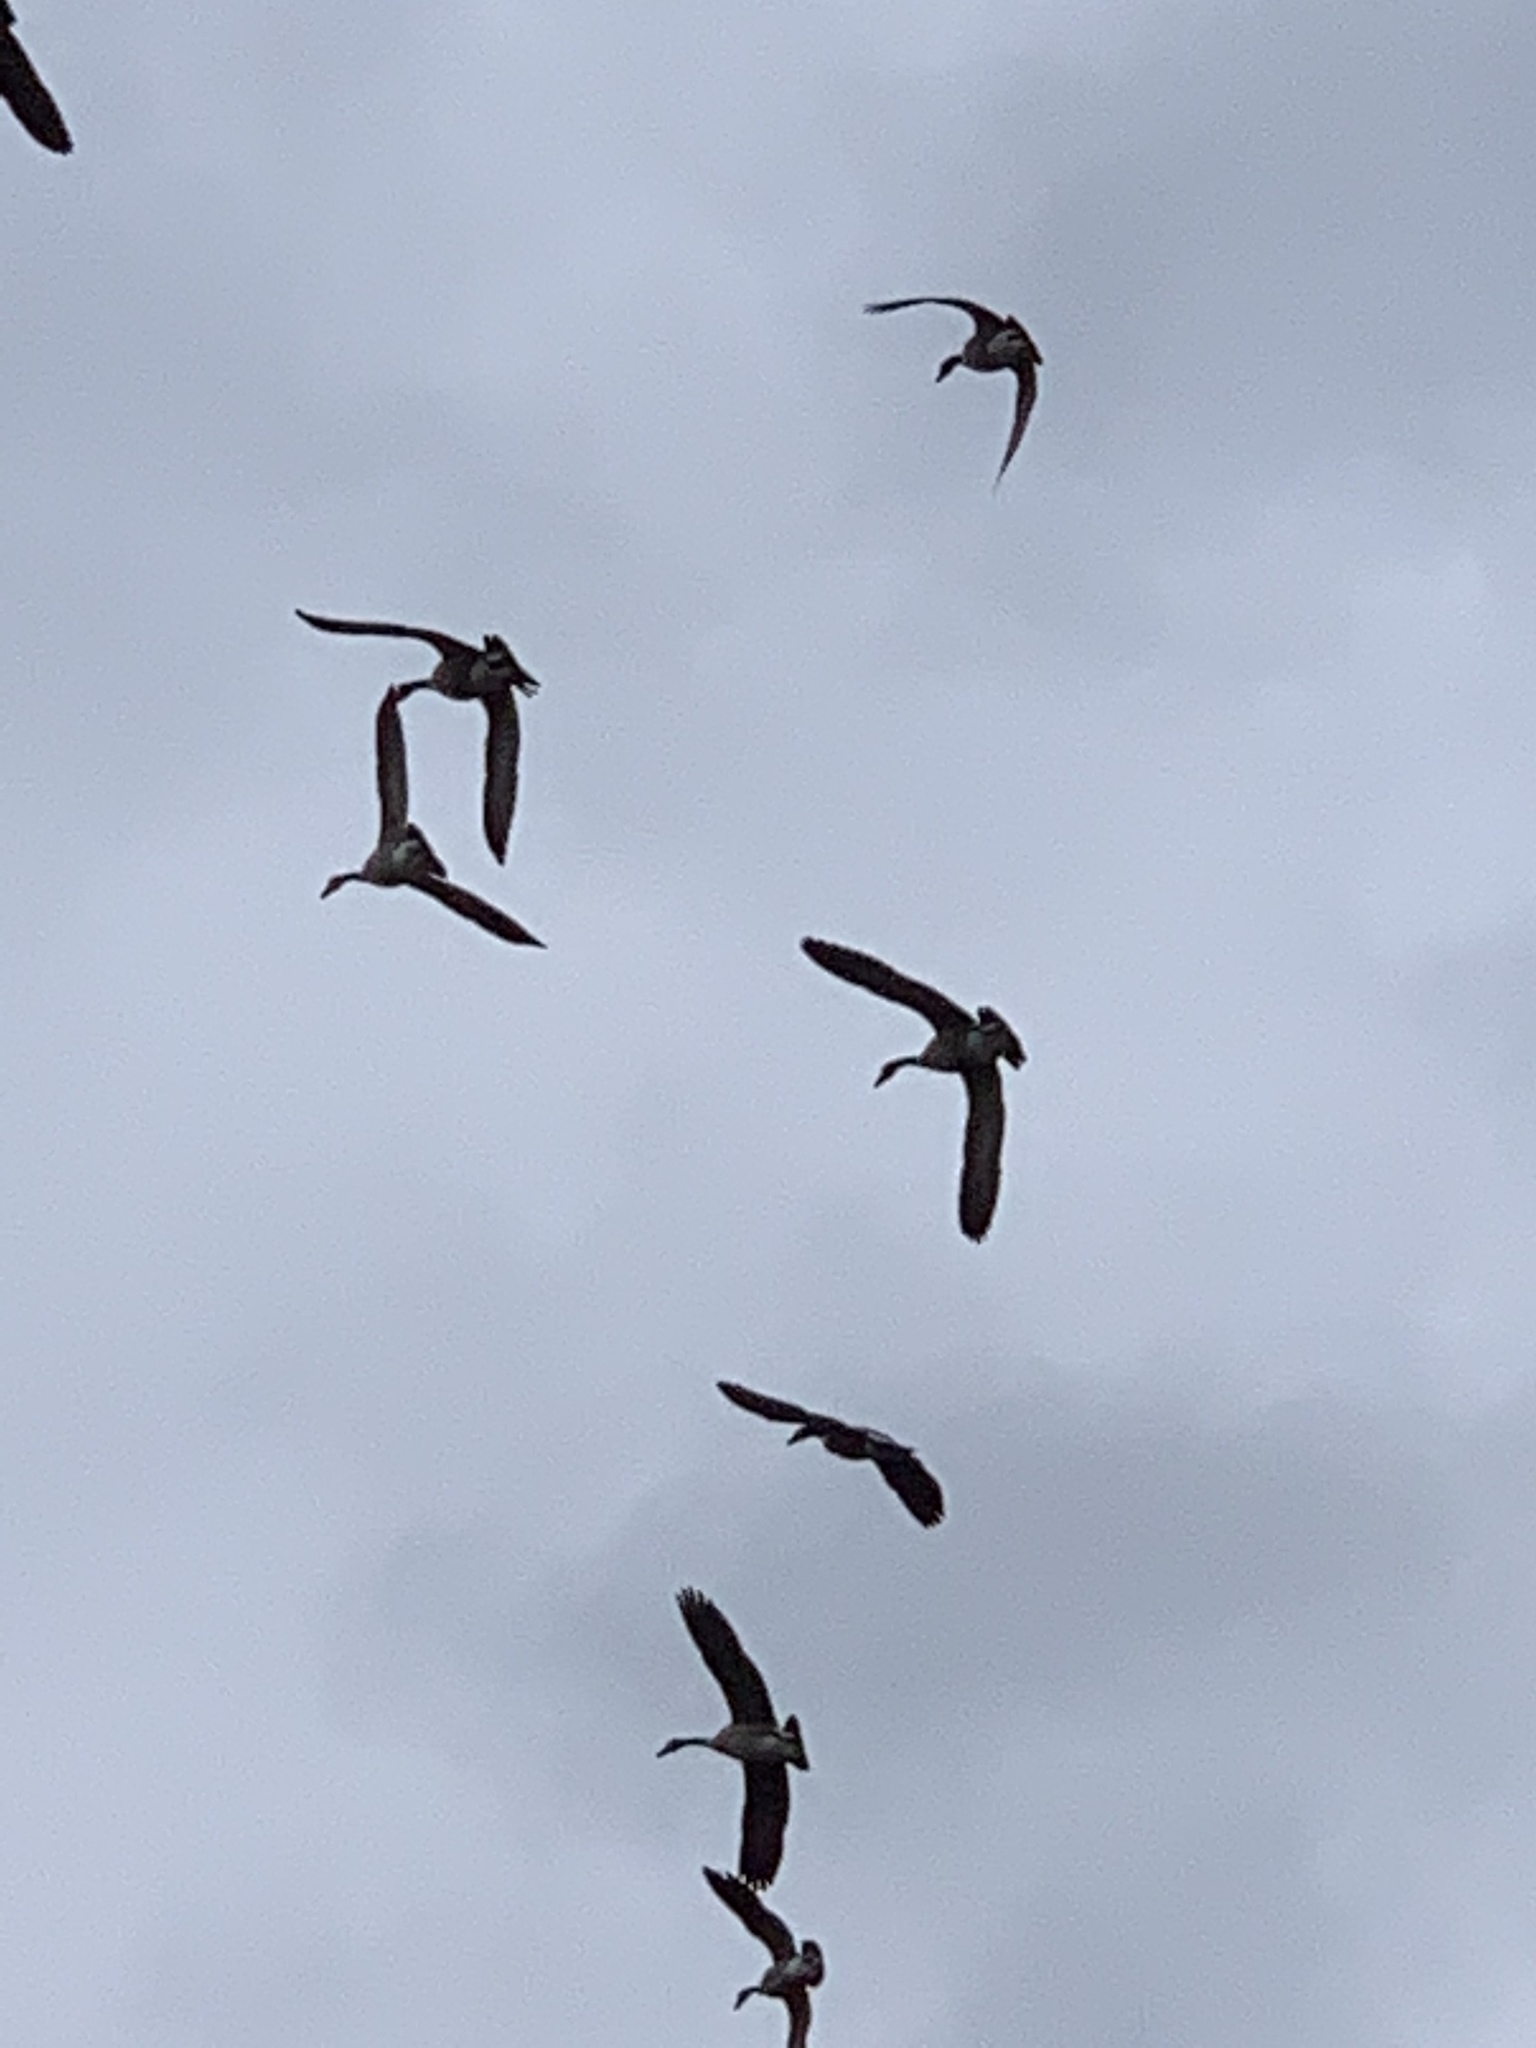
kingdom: Animalia
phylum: Chordata
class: Aves
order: Anseriformes
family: Anatidae
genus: Branta
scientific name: Branta canadensis
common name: Canada goose
